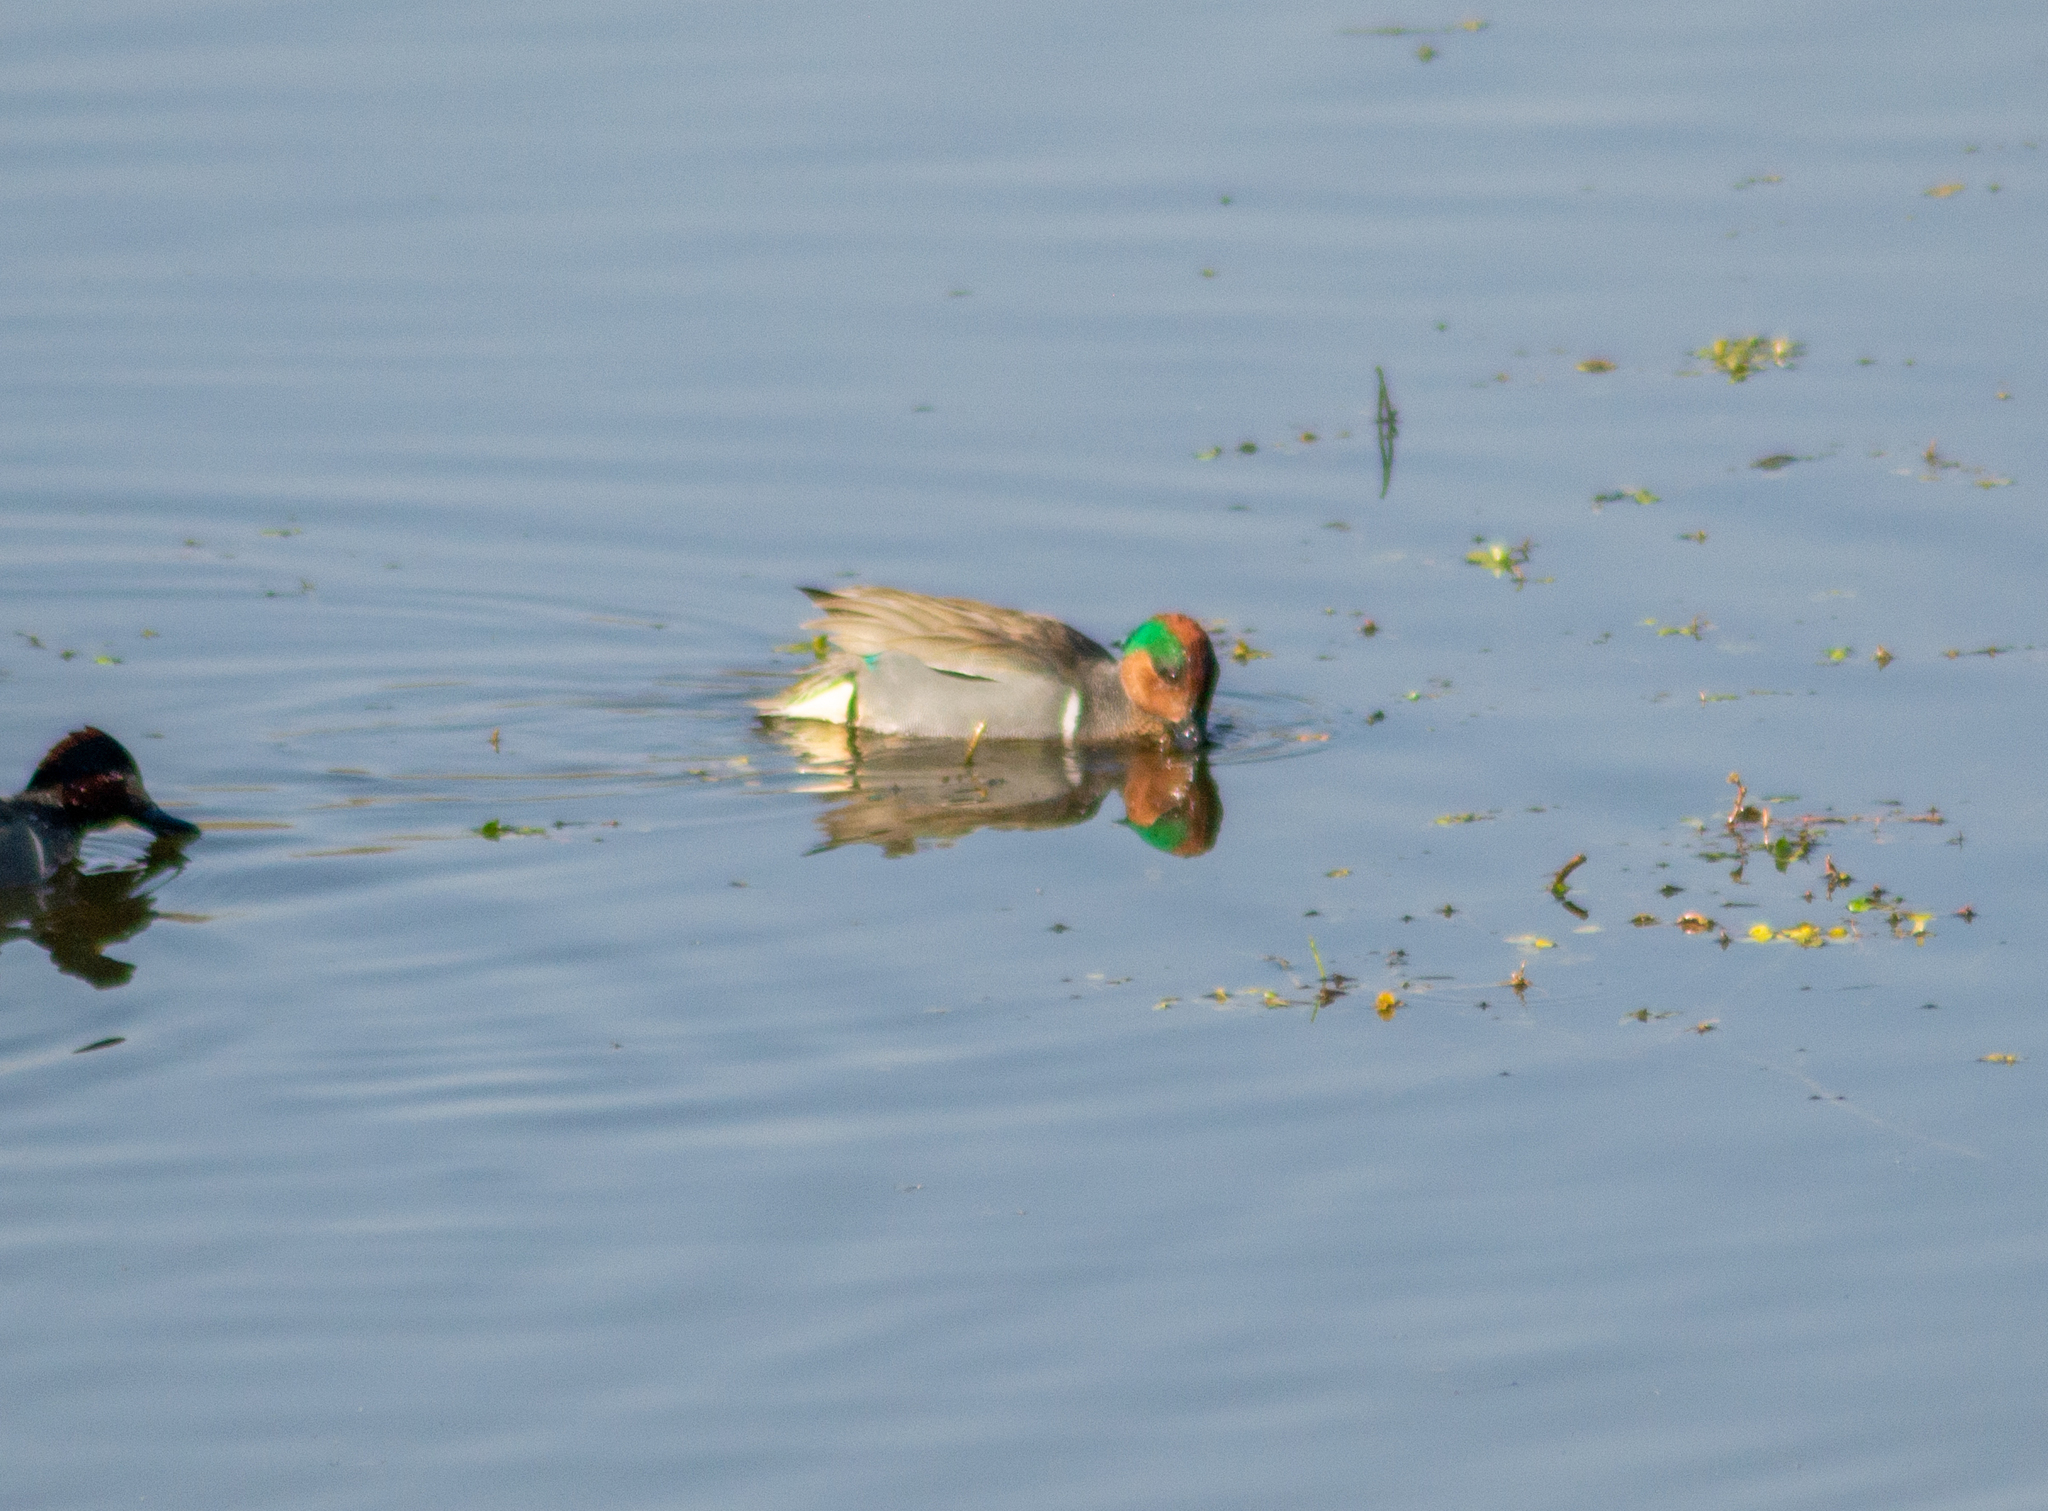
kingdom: Animalia
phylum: Chordata
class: Aves
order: Anseriformes
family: Anatidae
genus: Anas
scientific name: Anas crecca
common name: Eurasian teal
